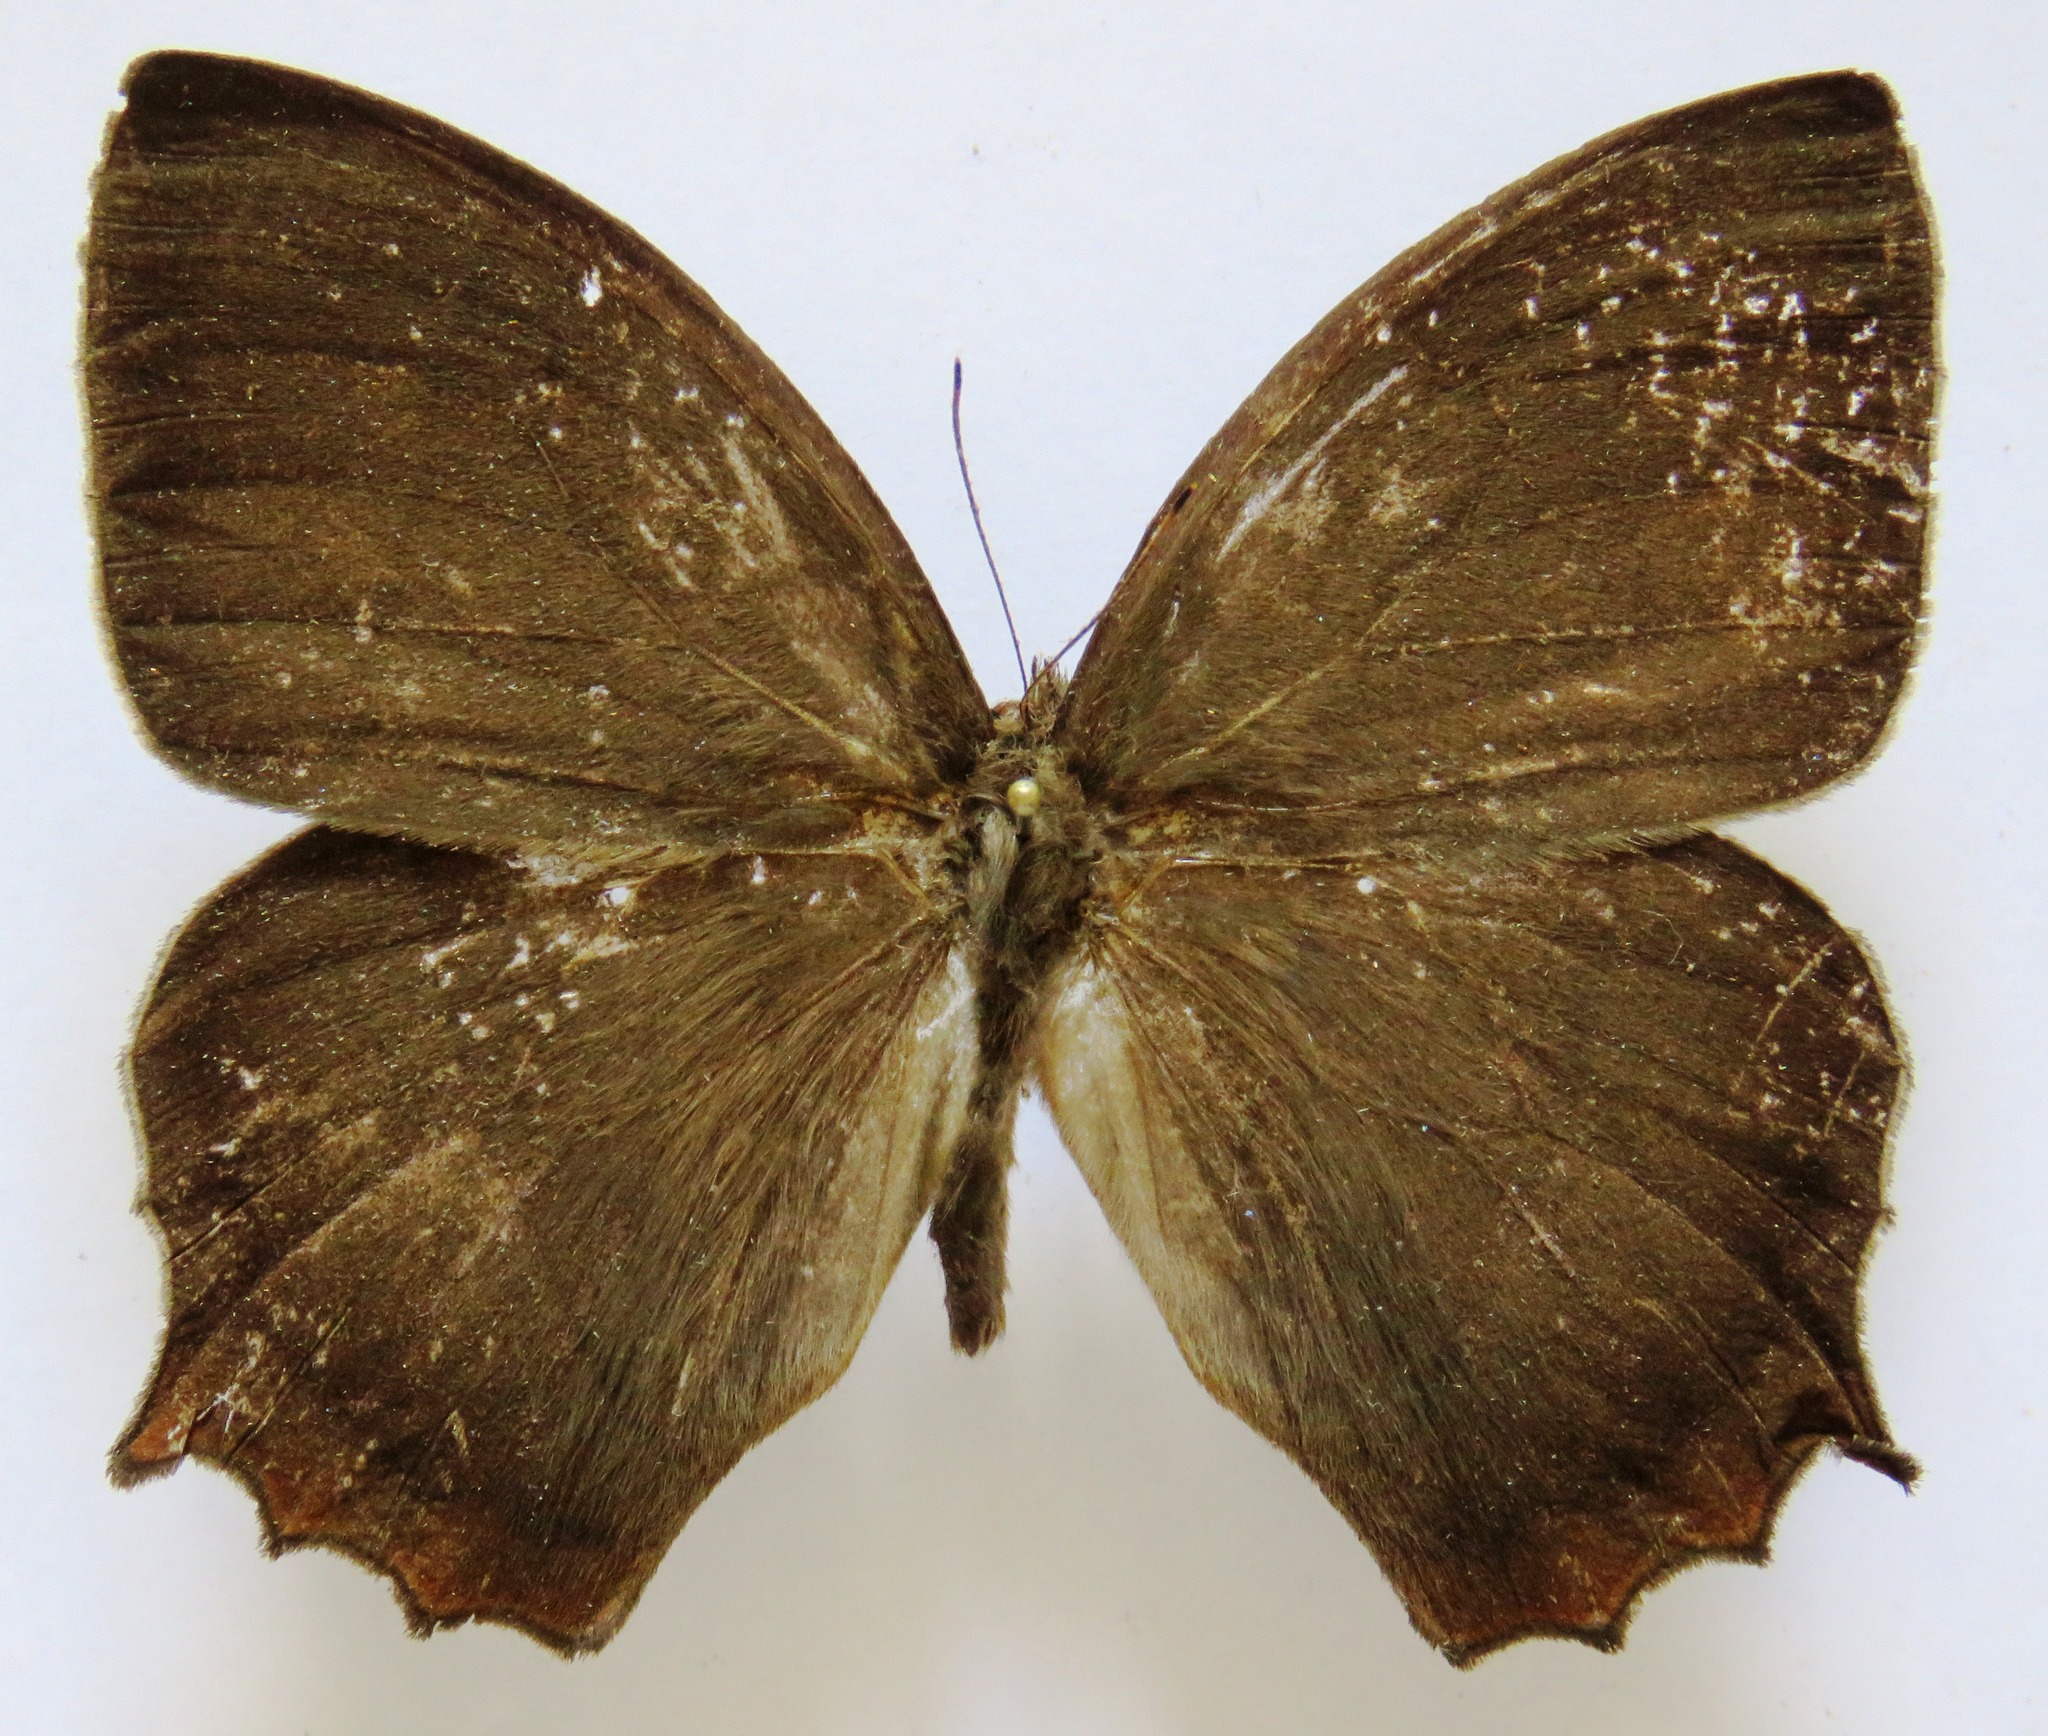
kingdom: Animalia
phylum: Arthropoda
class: Insecta
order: Lepidoptera
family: Nymphalidae
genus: Taygetis
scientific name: Taygetis virgilia
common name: Stub-tailed satyr
